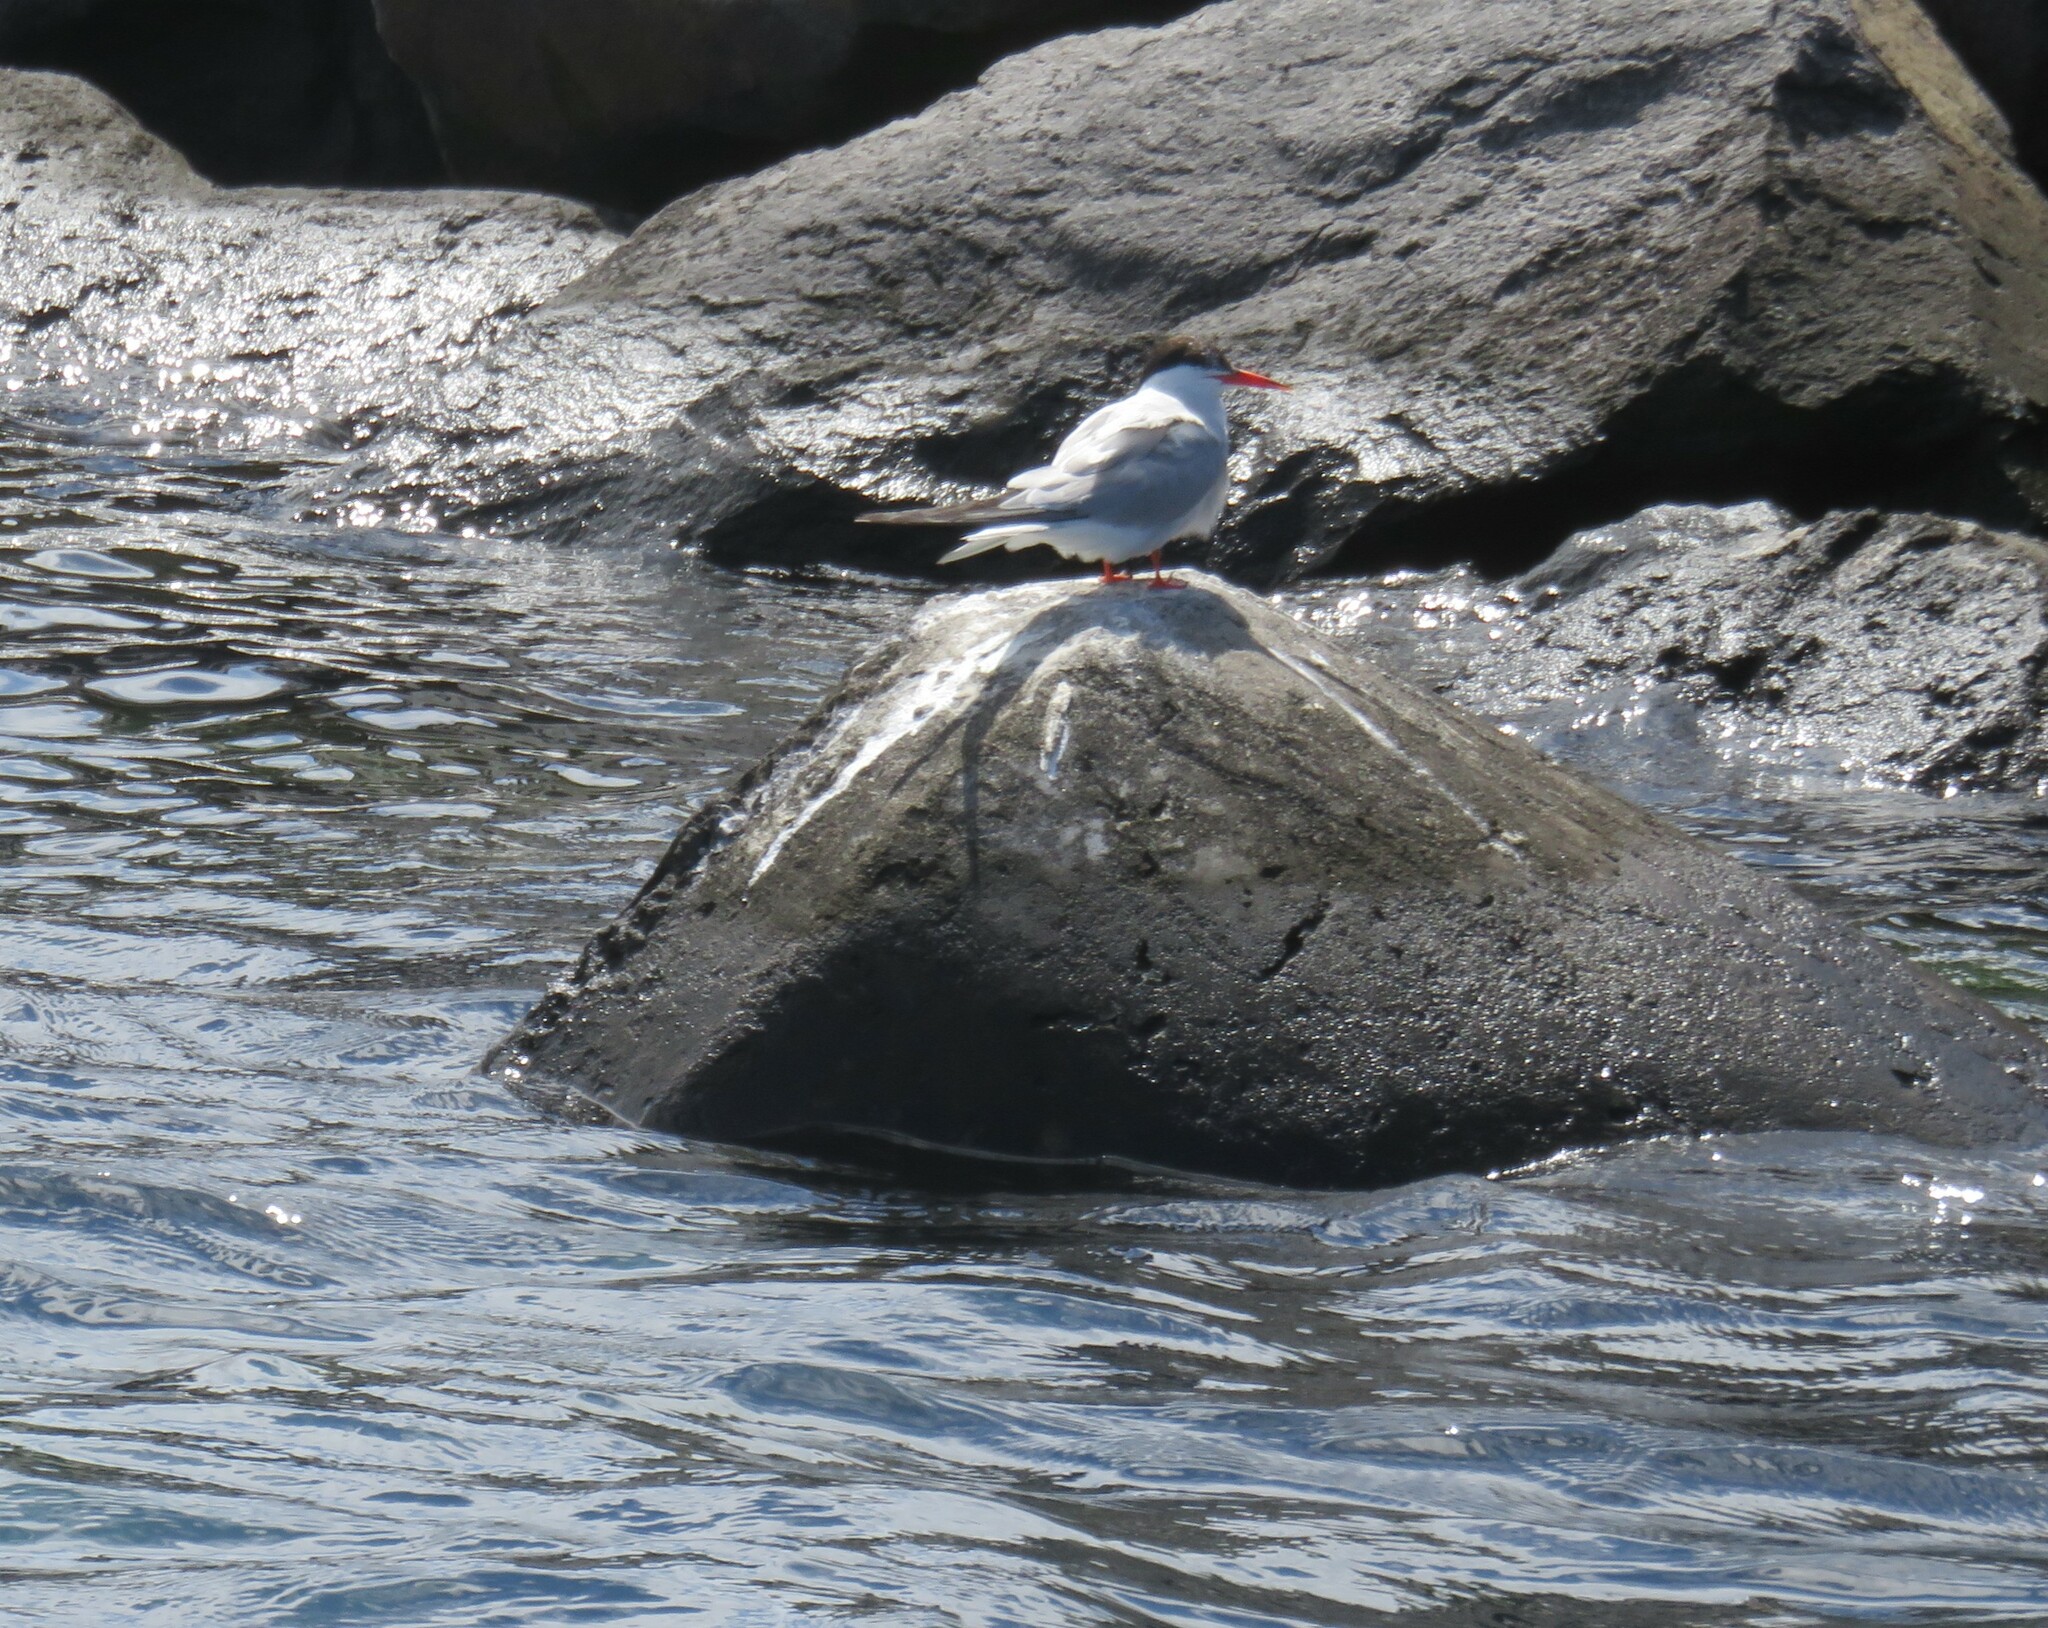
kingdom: Animalia
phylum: Chordata
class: Aves
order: Charadriiformes
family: Laridae
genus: Sterna
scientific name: Sterna hirundo
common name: Common tern
